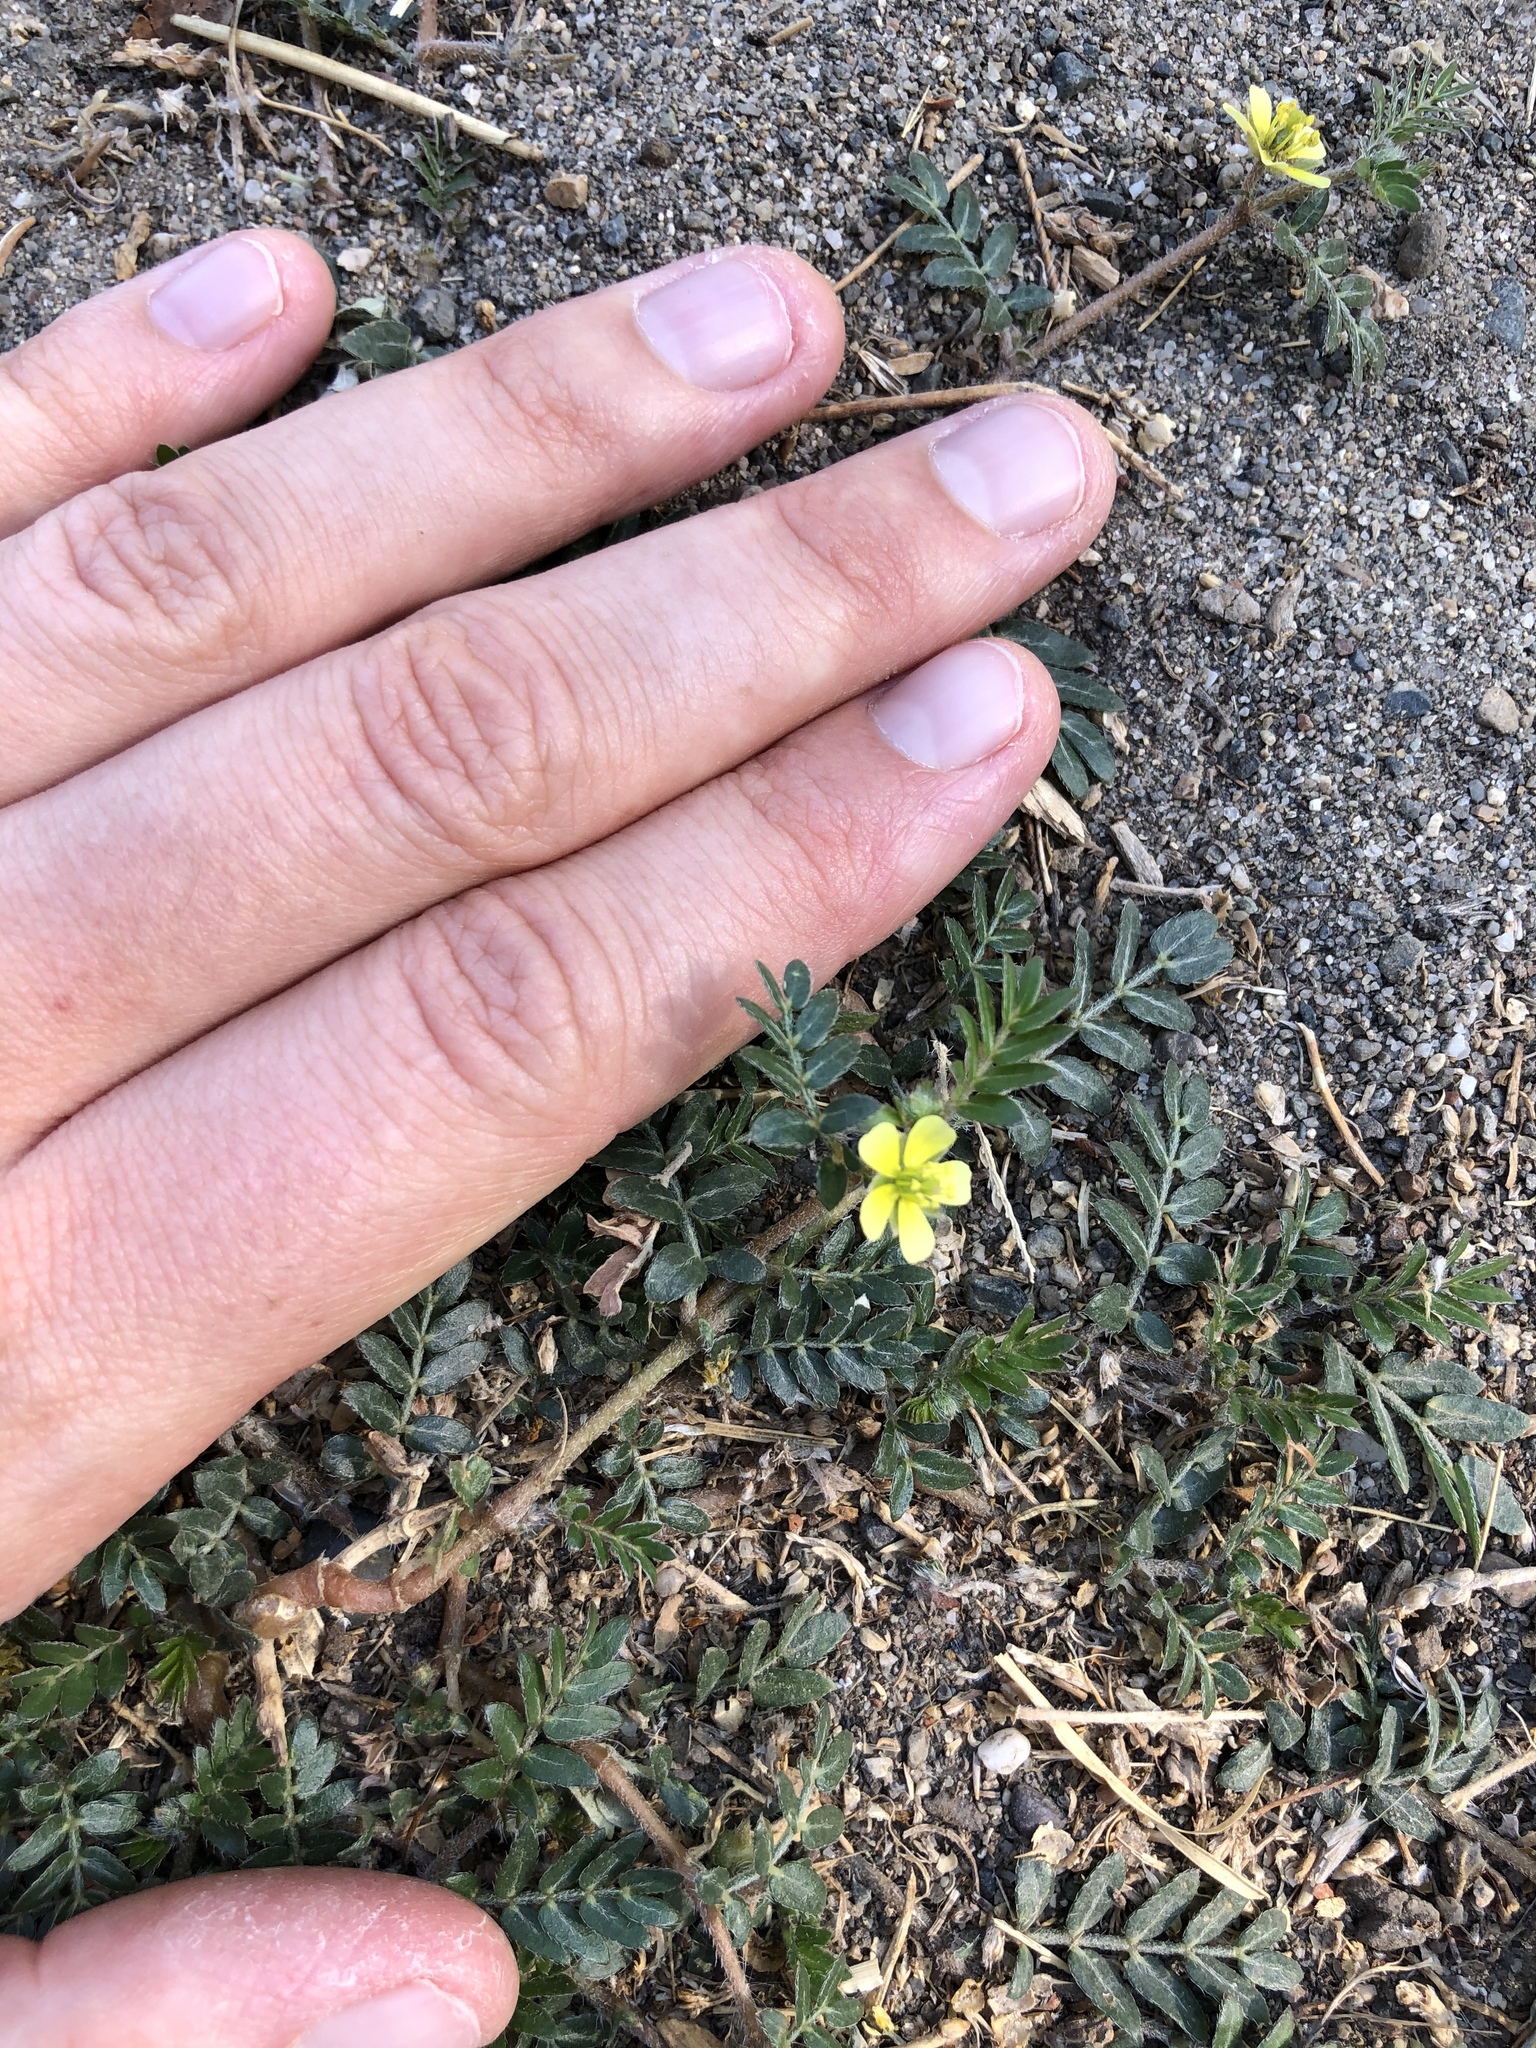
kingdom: Plantae
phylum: Tracheophyta
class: Magnoliopsida
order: Zygophyllales
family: Zygophyllaceae
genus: Tribulus
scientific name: Tribulus terrestris
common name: Puncturevine
